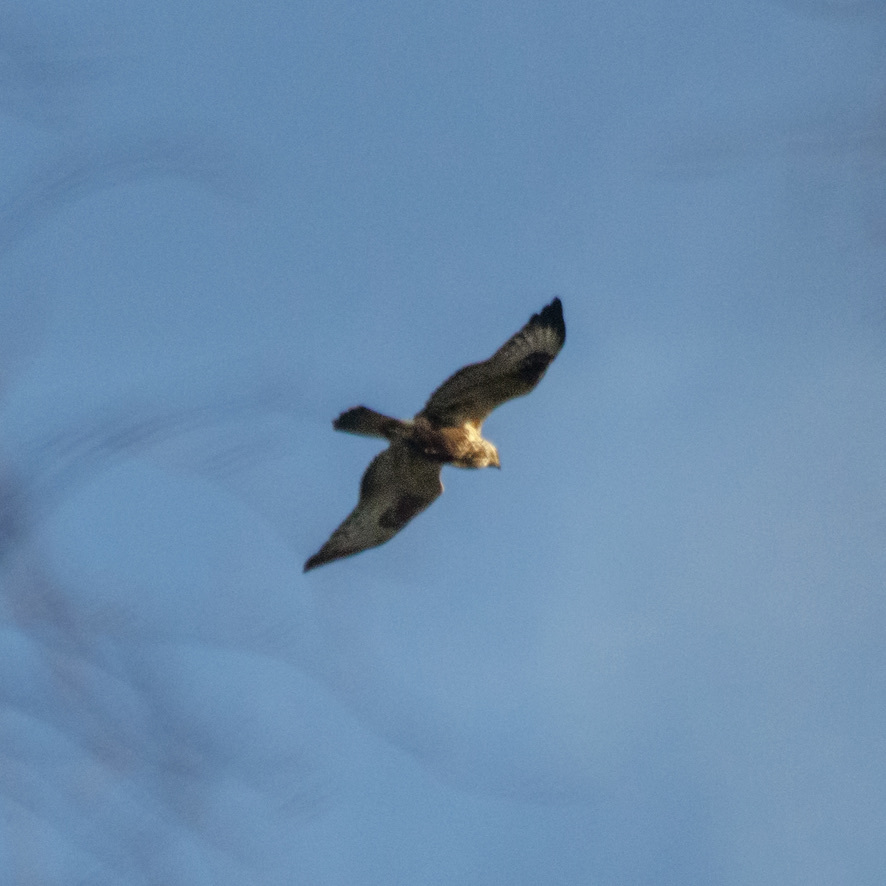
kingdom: Animalia
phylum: Chordata
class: Aves
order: Accipitriformes
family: Accipitridae
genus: Buteo
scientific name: Buteo lagopus
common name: Rough-legged buzzard
